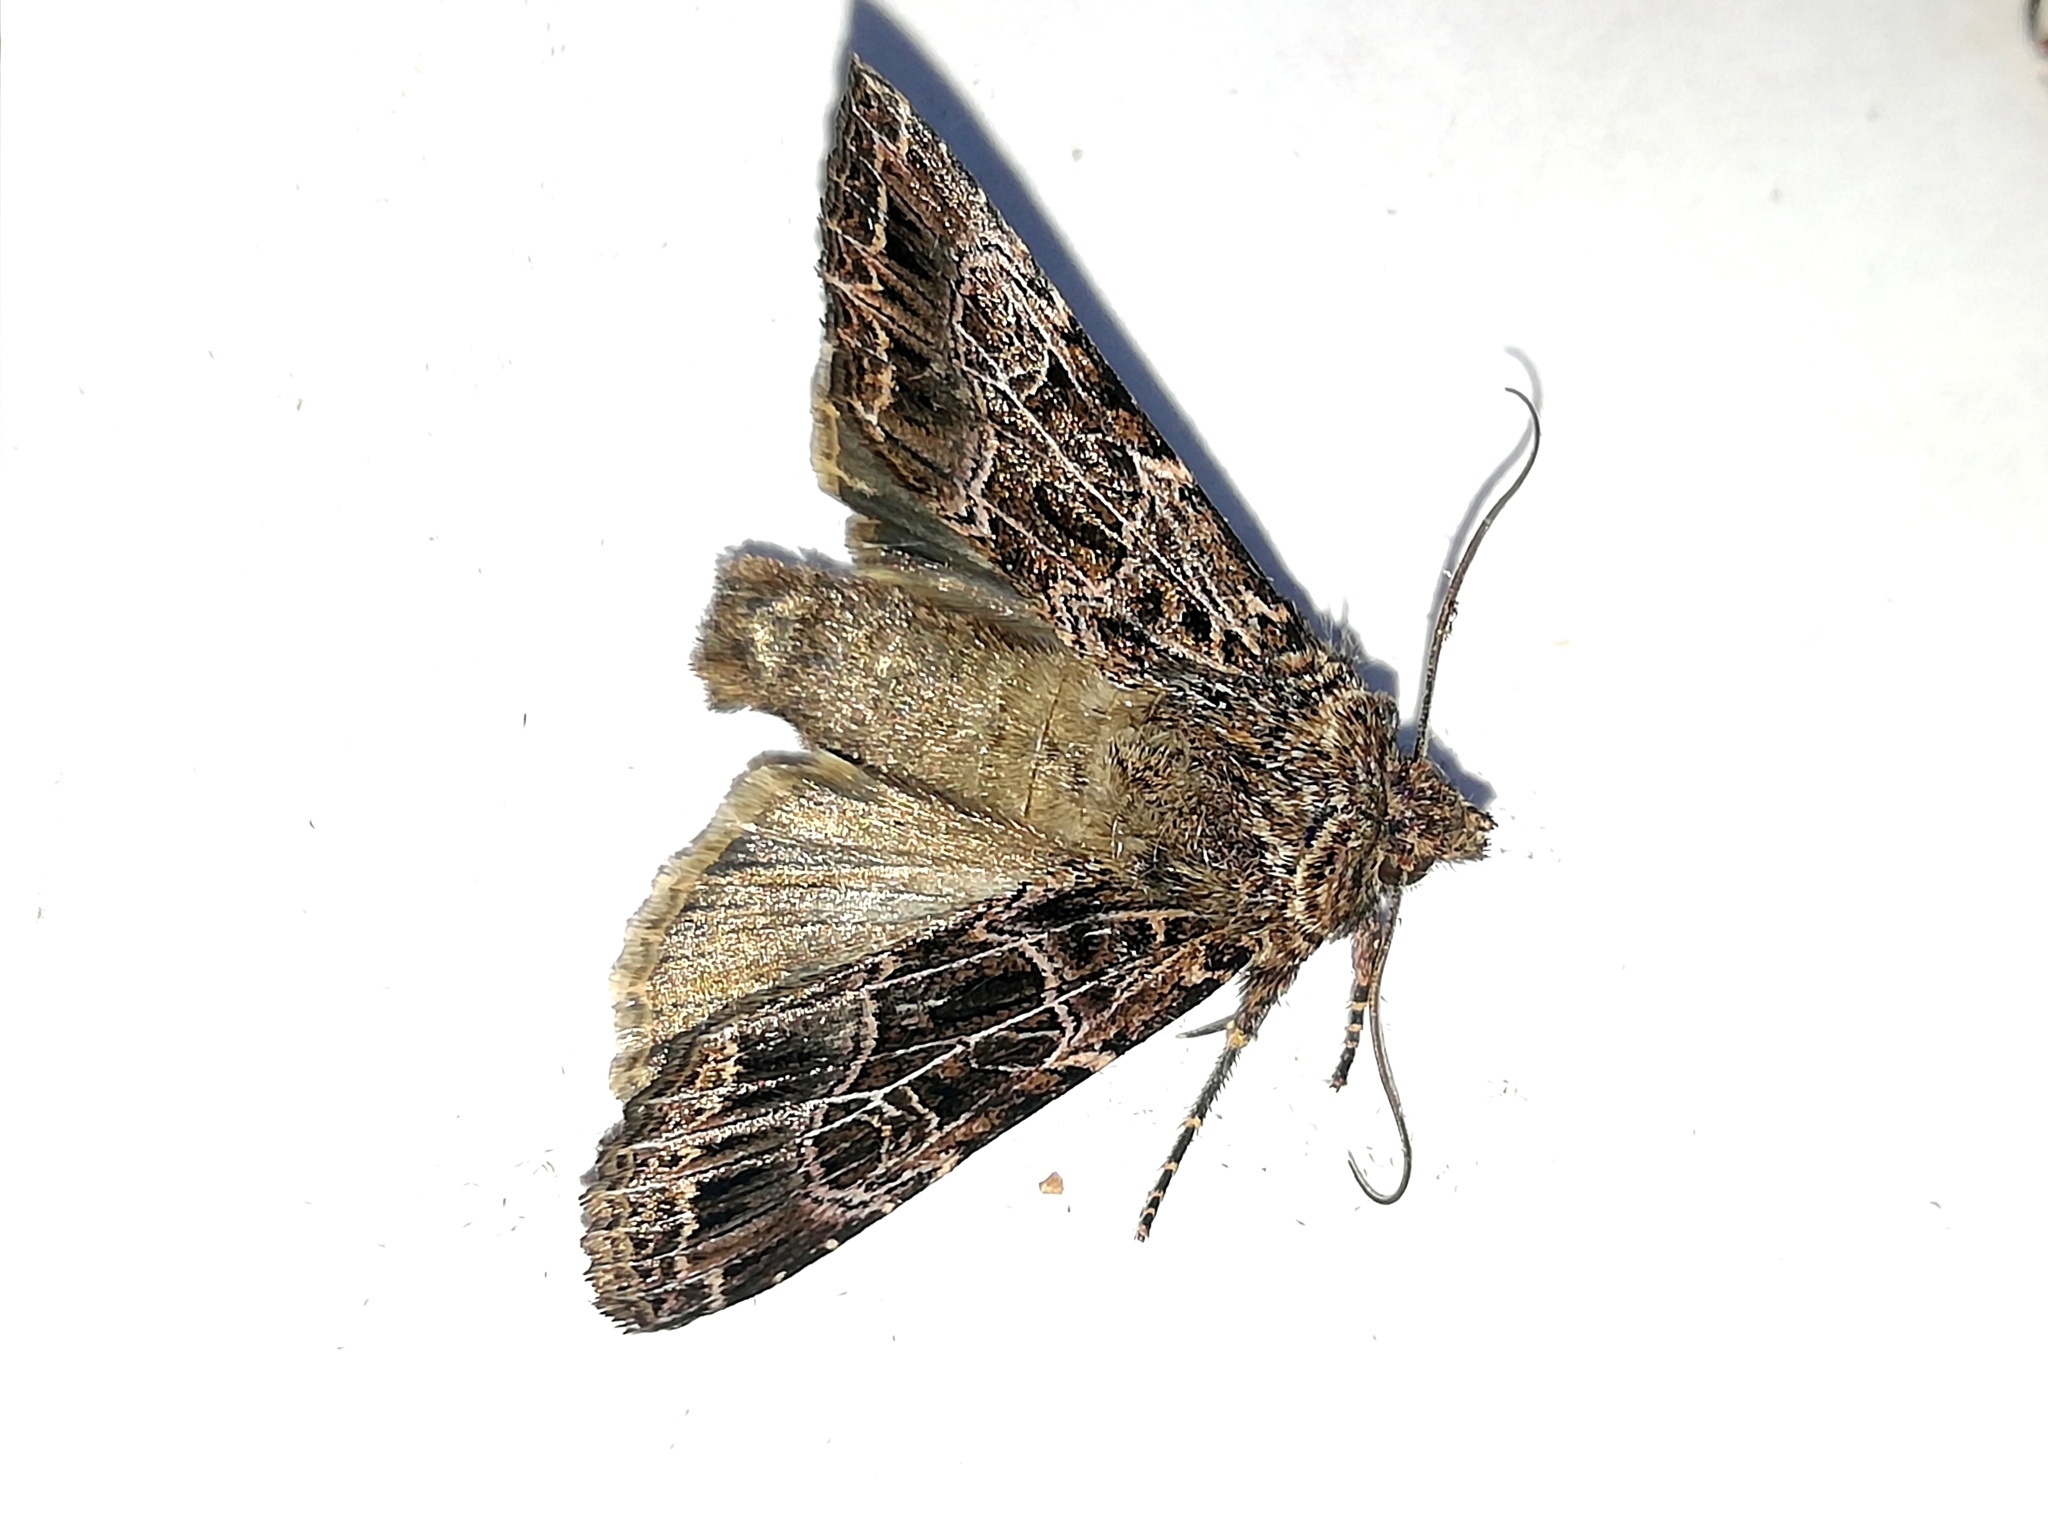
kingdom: Animalia
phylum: Arthropoda
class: Insecta
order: Lepidoptera
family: Noctuidae
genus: Sideridis
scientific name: Sideridis reticulata
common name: Bordered gothic
